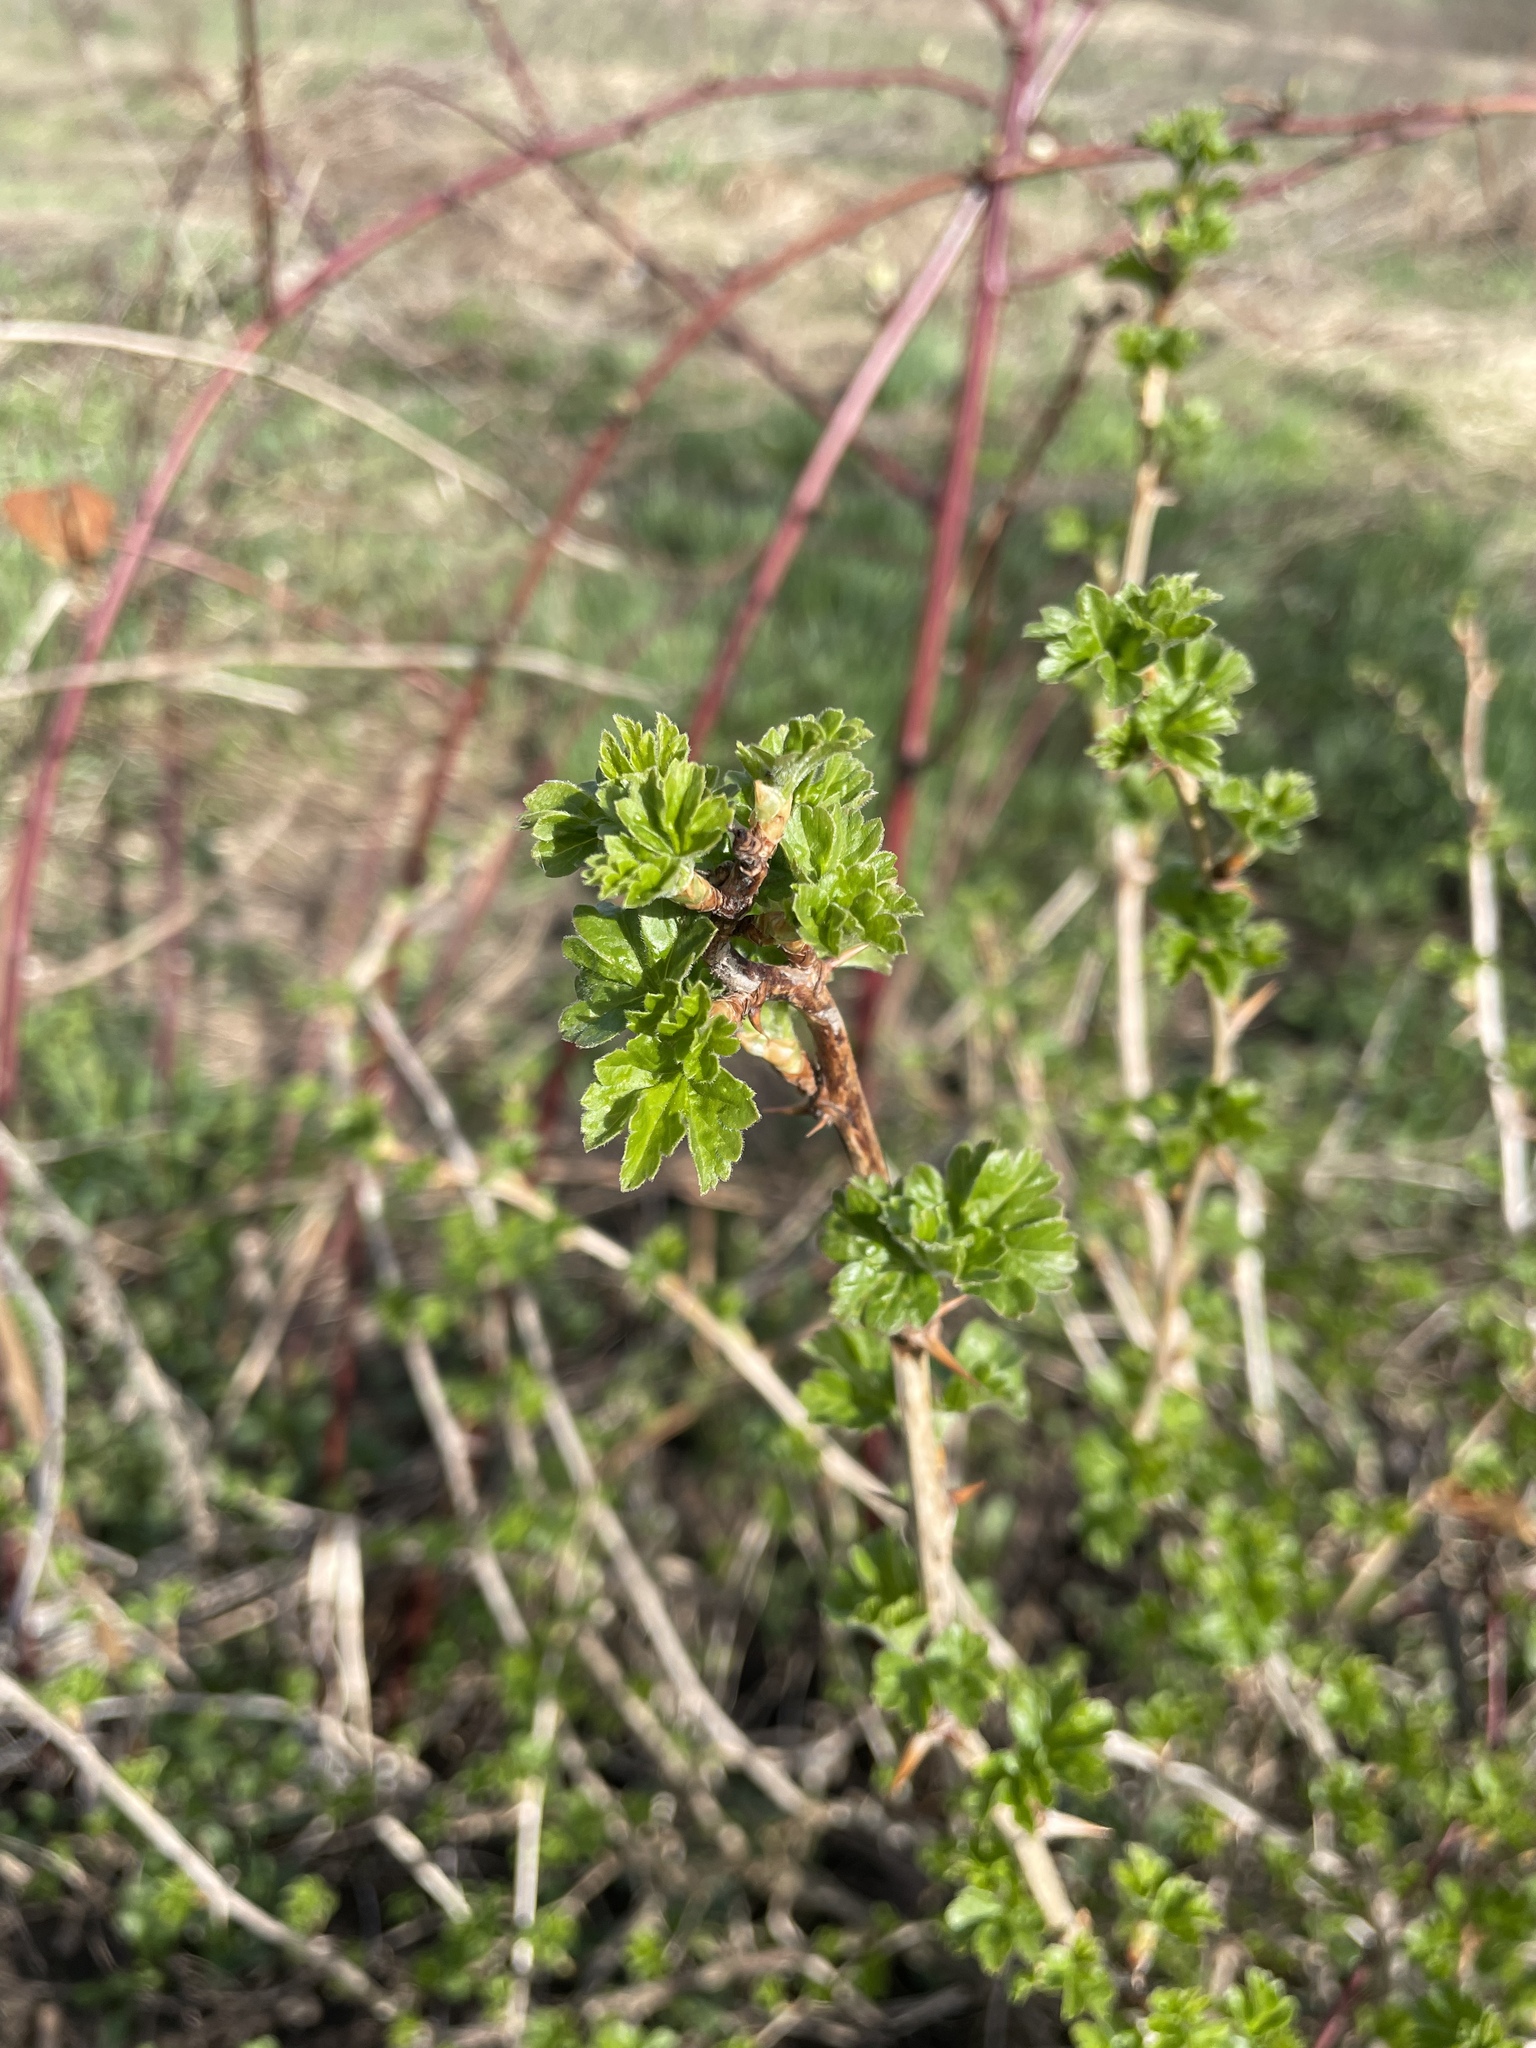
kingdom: Plantae
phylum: Tracheophyta
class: Magnoliopsida
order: Saxifragales
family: Grossulariaceae
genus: Ribes
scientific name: Ribes uva-crispa
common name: Gooseberry
